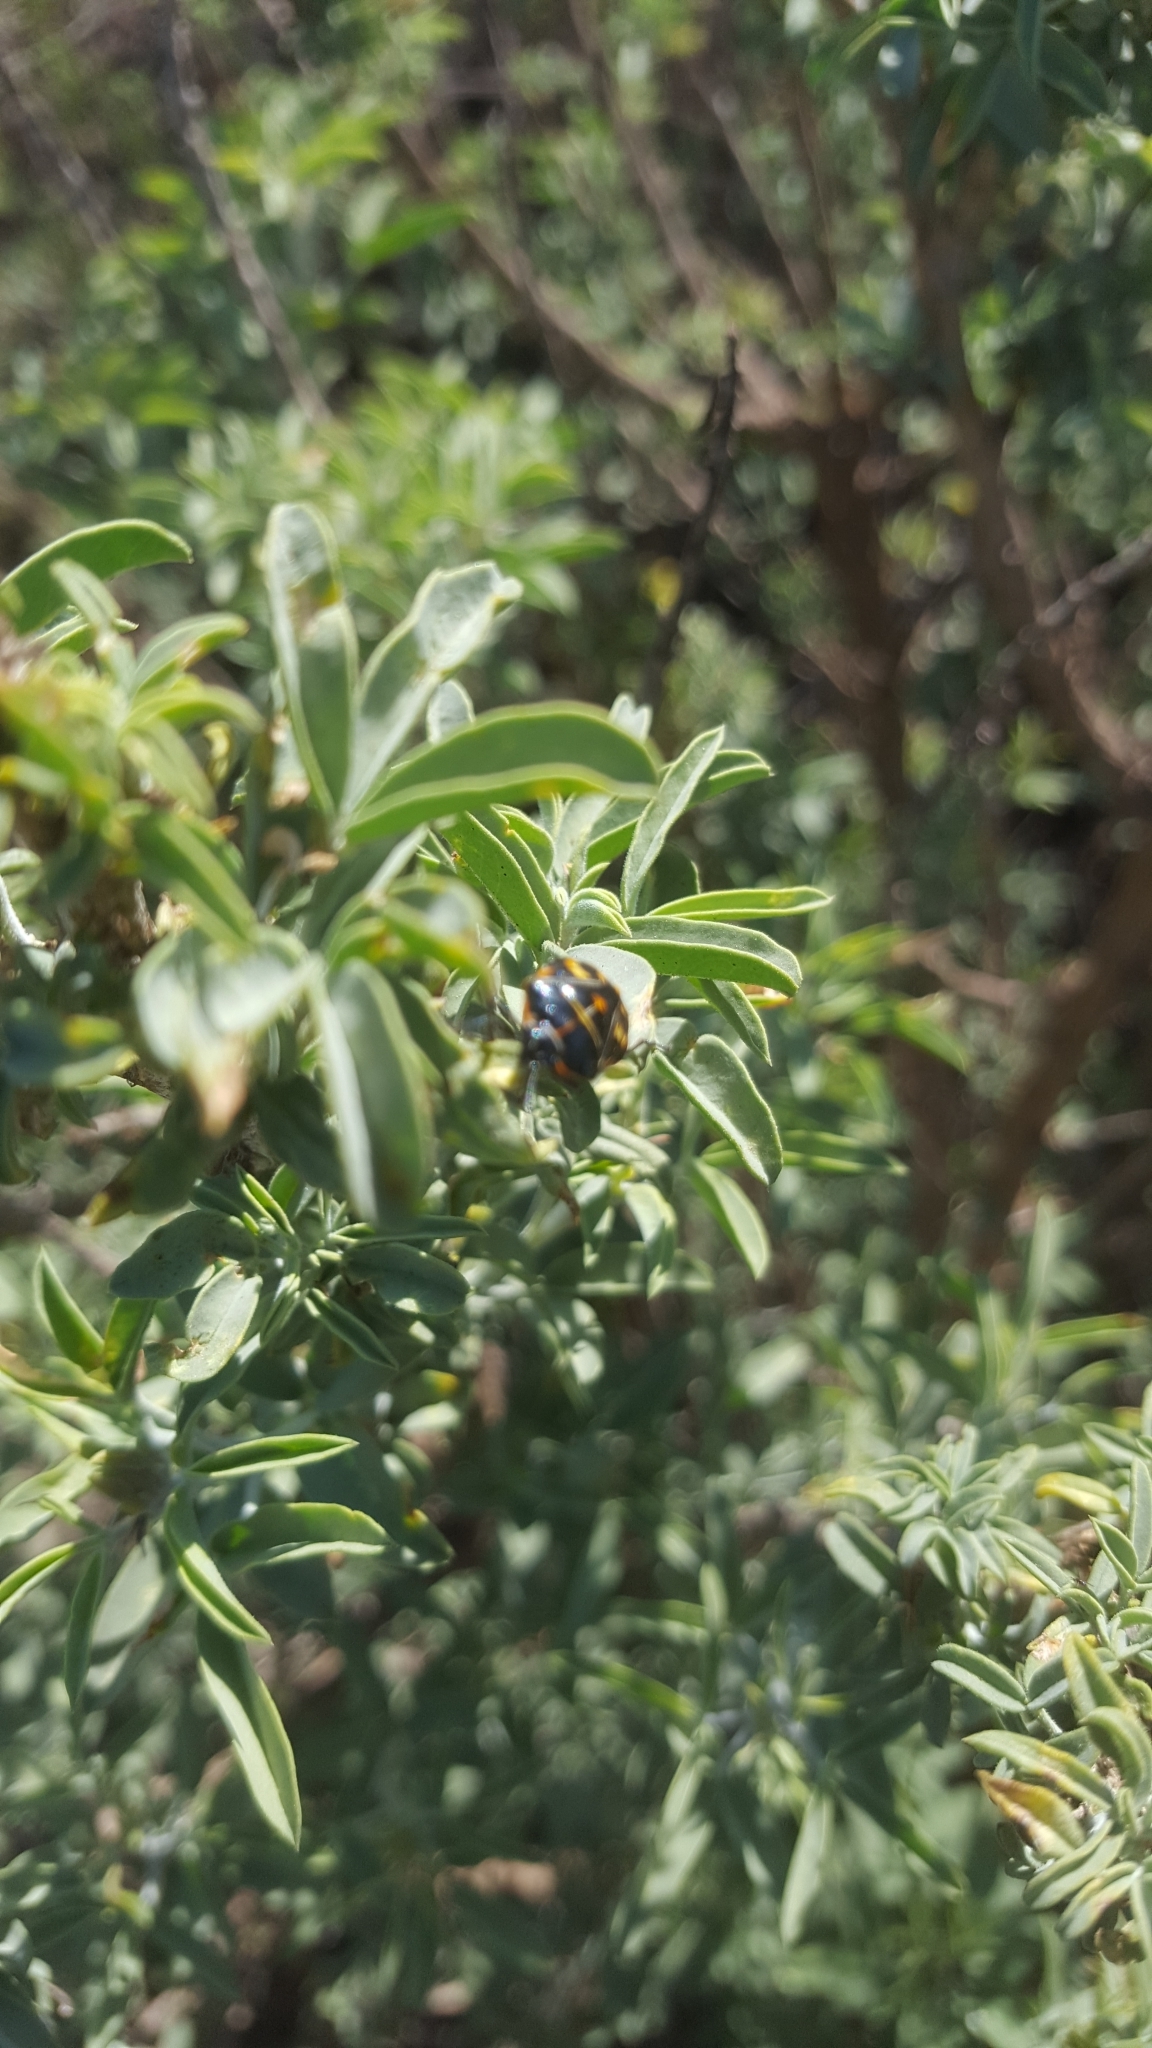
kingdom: Plantae
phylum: Tracheophyta
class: Magnoliopsida
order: Brassicales
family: Cleomaceae
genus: Cleomella
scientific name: Cleomella arborea
